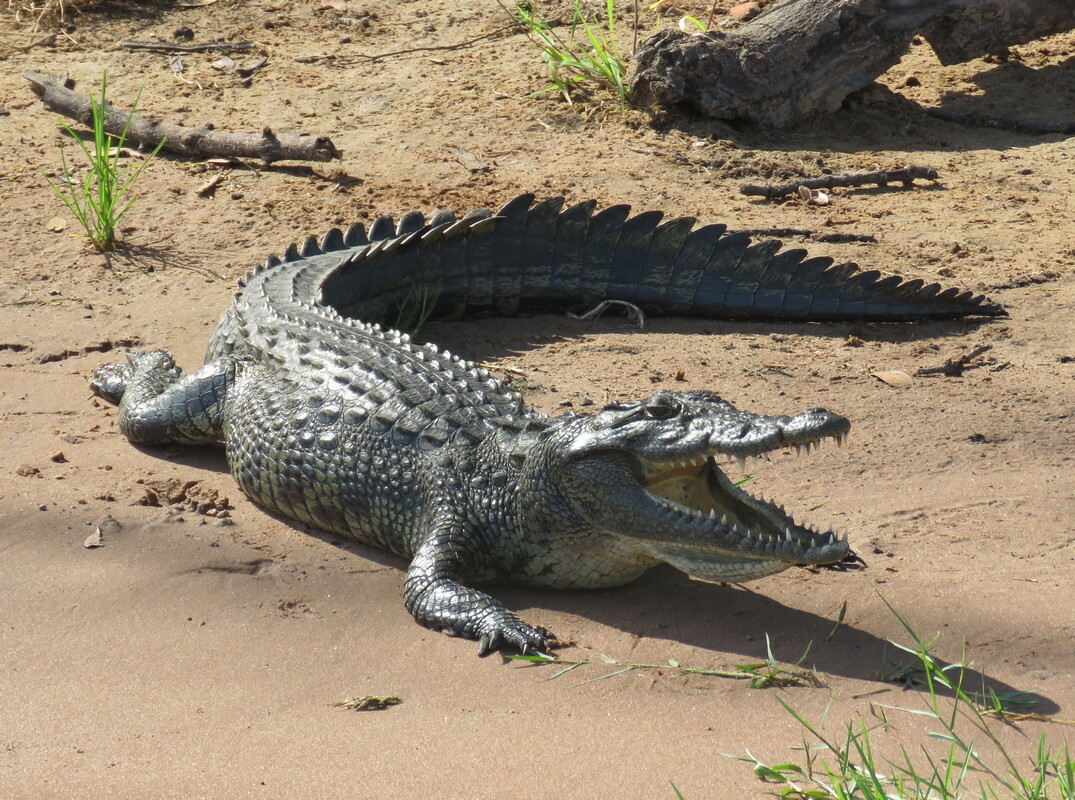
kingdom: Animalia
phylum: Chordata
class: Crocodylia
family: Crocodylidae
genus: Crocodylus
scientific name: Crocodylus niloticus
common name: Nile crocodile
